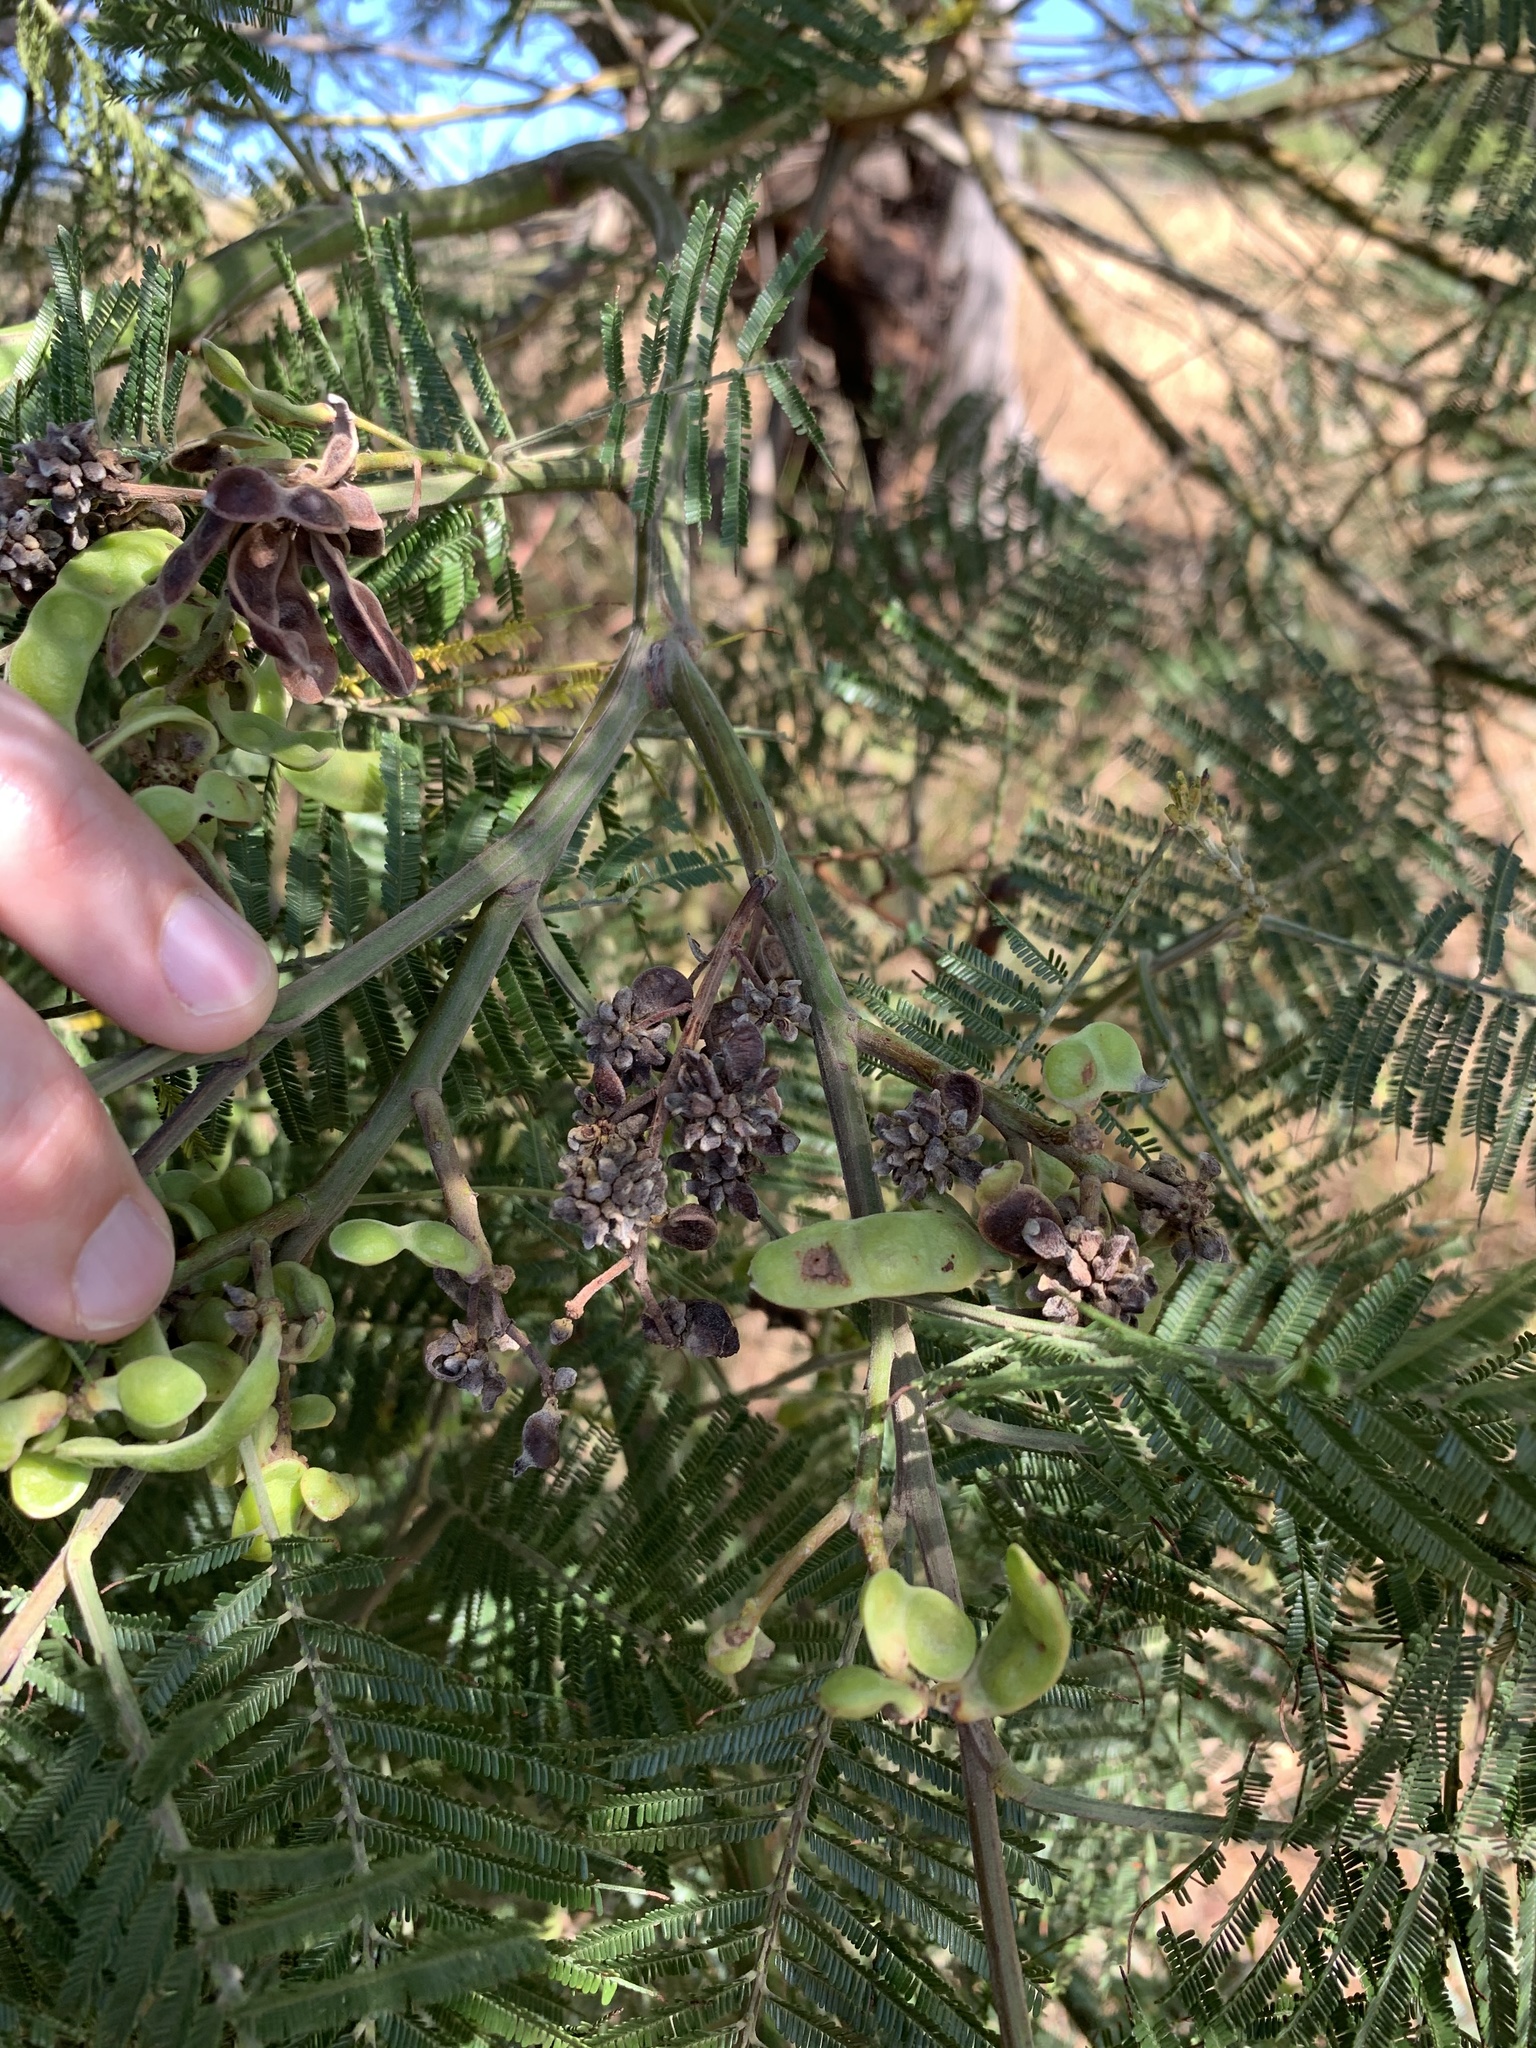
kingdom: Animalia
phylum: Arthropoda
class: Insecta
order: Diptera
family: Cecidomyiidae
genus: Dasineura
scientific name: Dasineura rubiformis
